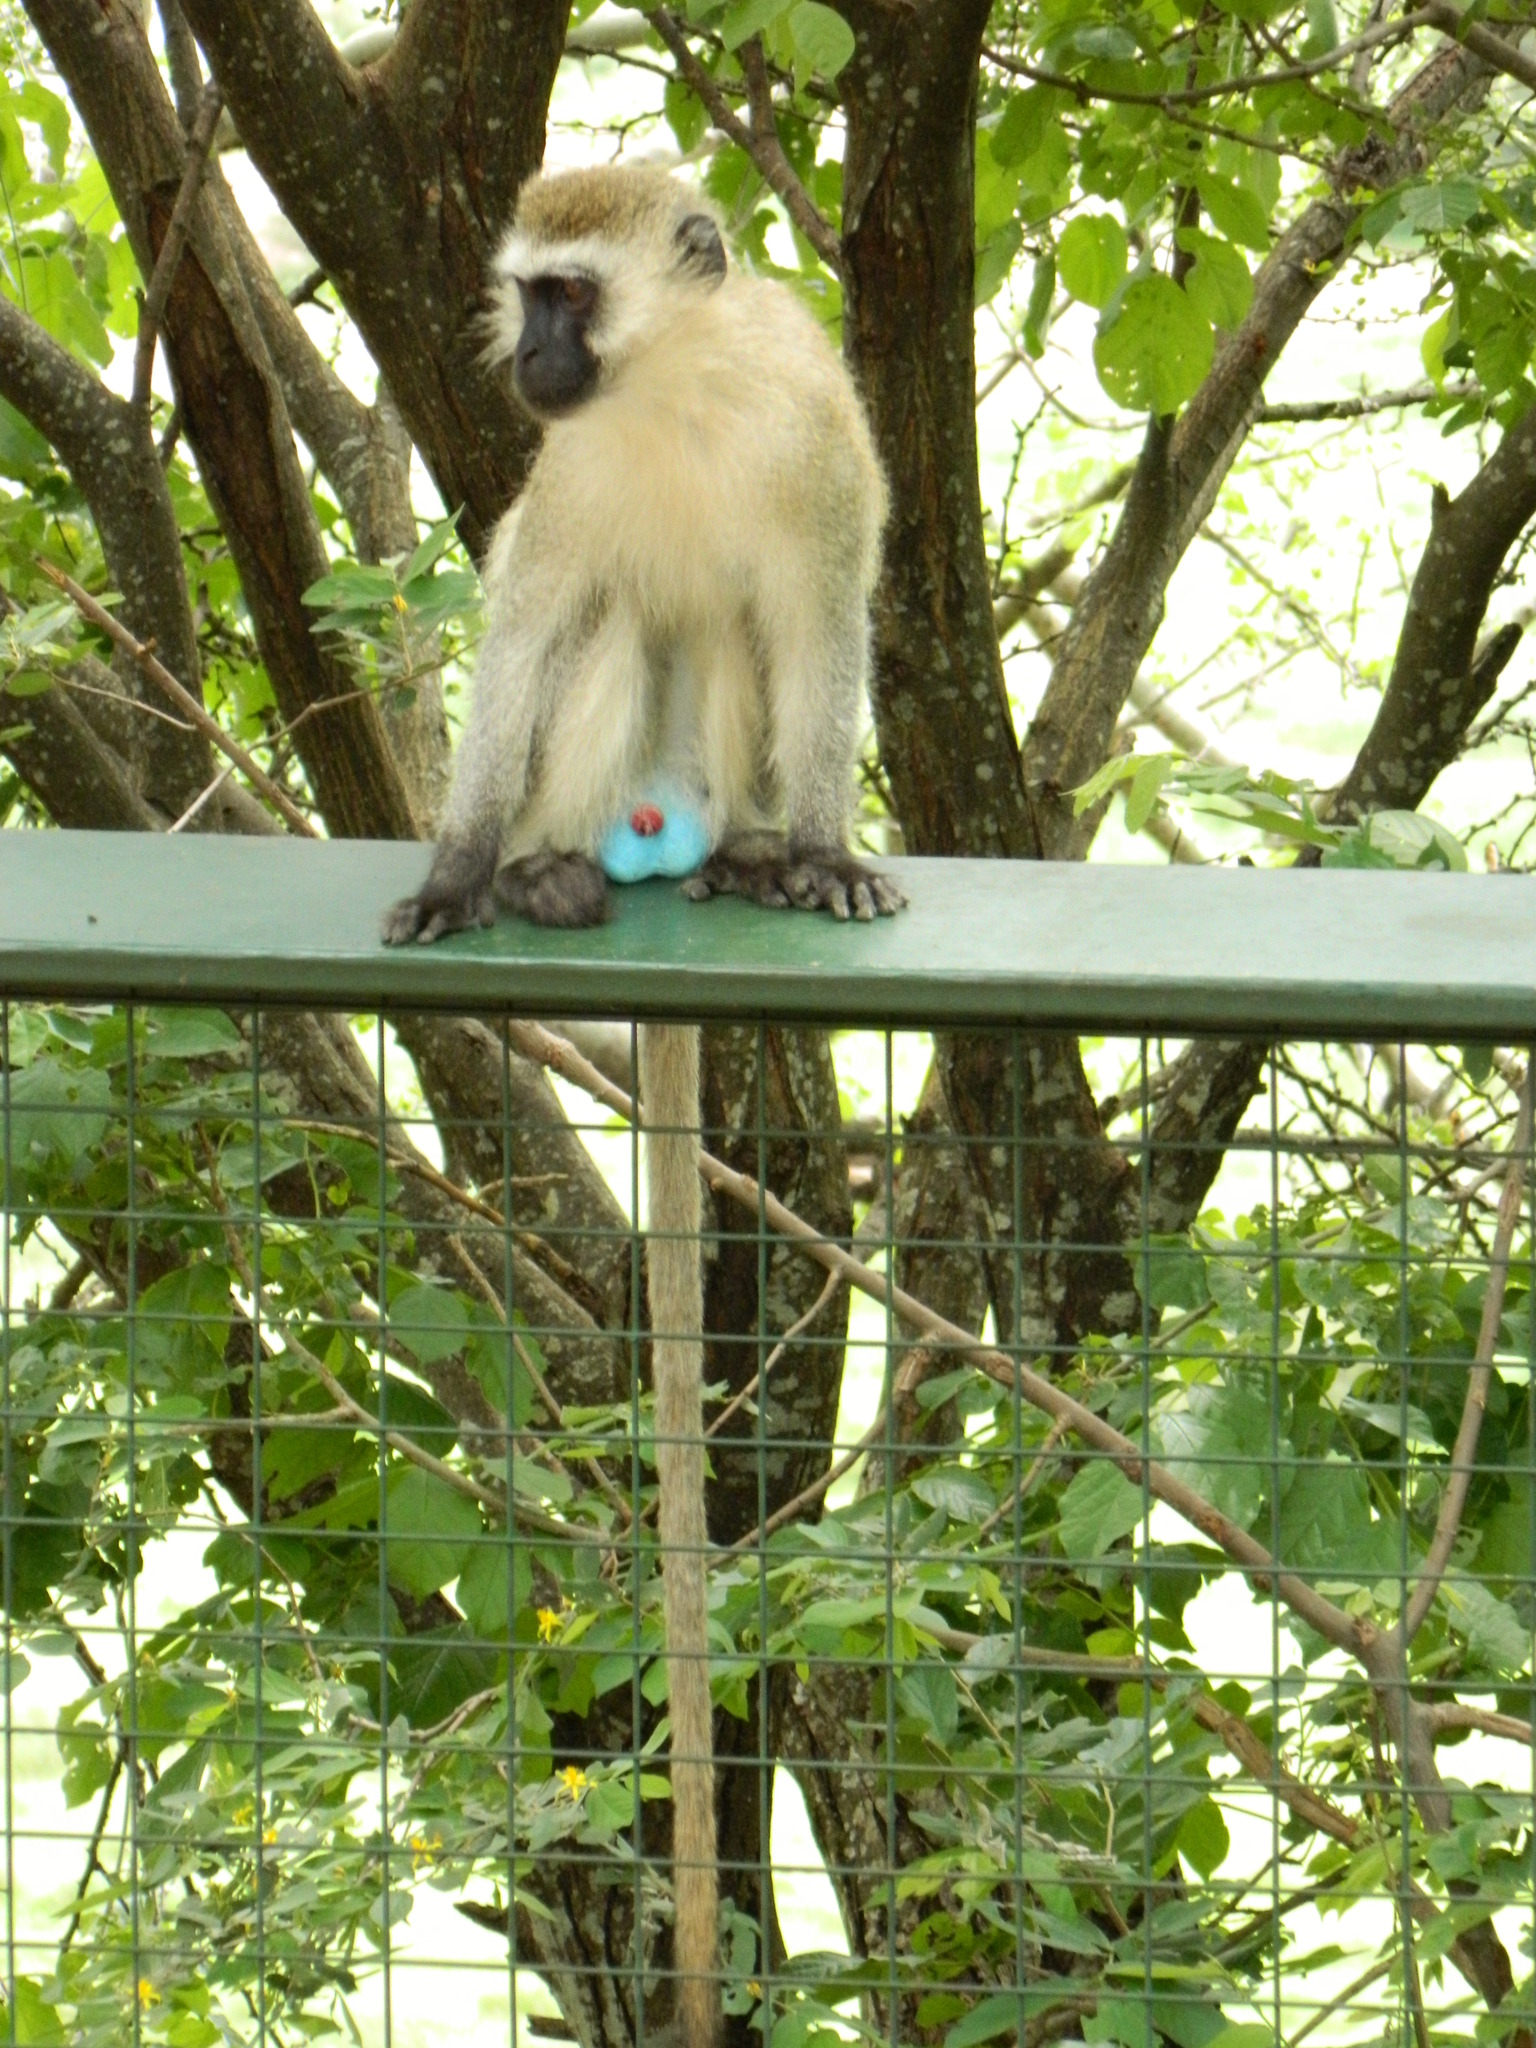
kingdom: Animalia
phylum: Chordata
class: Mammalia
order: Primates
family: Cercopithecidae
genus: Chlorocebus
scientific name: Chlorocebus pygerythrus
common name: Vervet monkey
